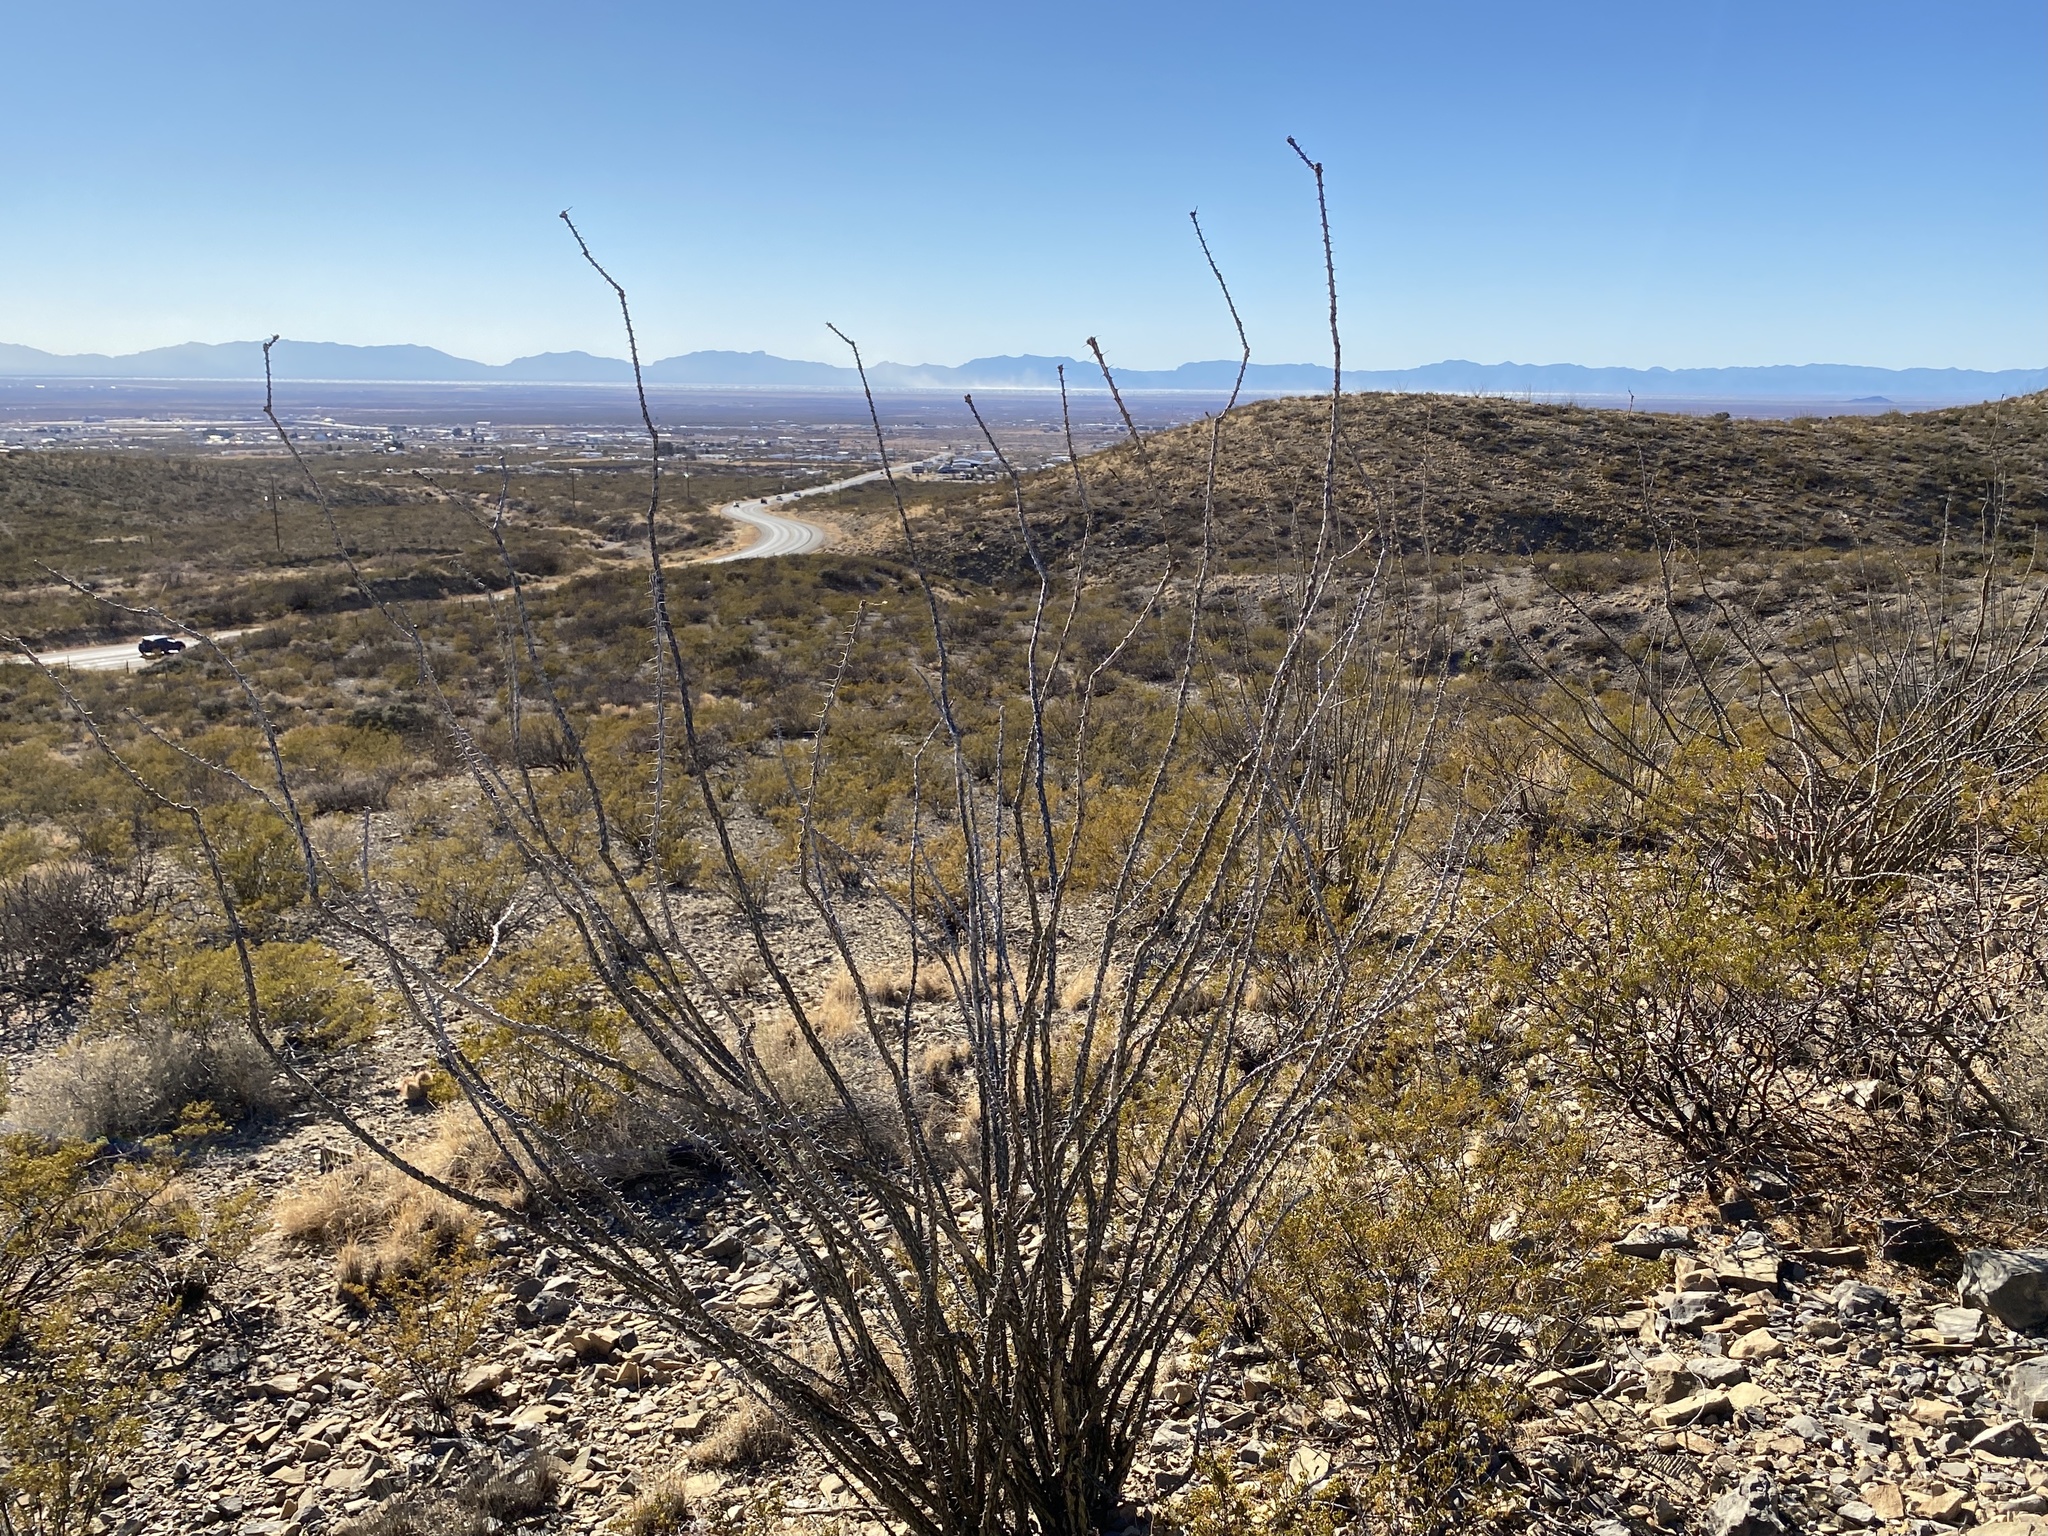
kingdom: Plantae
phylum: Tracheophyta
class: Magnoliopsida
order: Ericales
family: Fouquieriaceae
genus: Fouquieria
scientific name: Fouquieria splendens
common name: Vine-cactus
